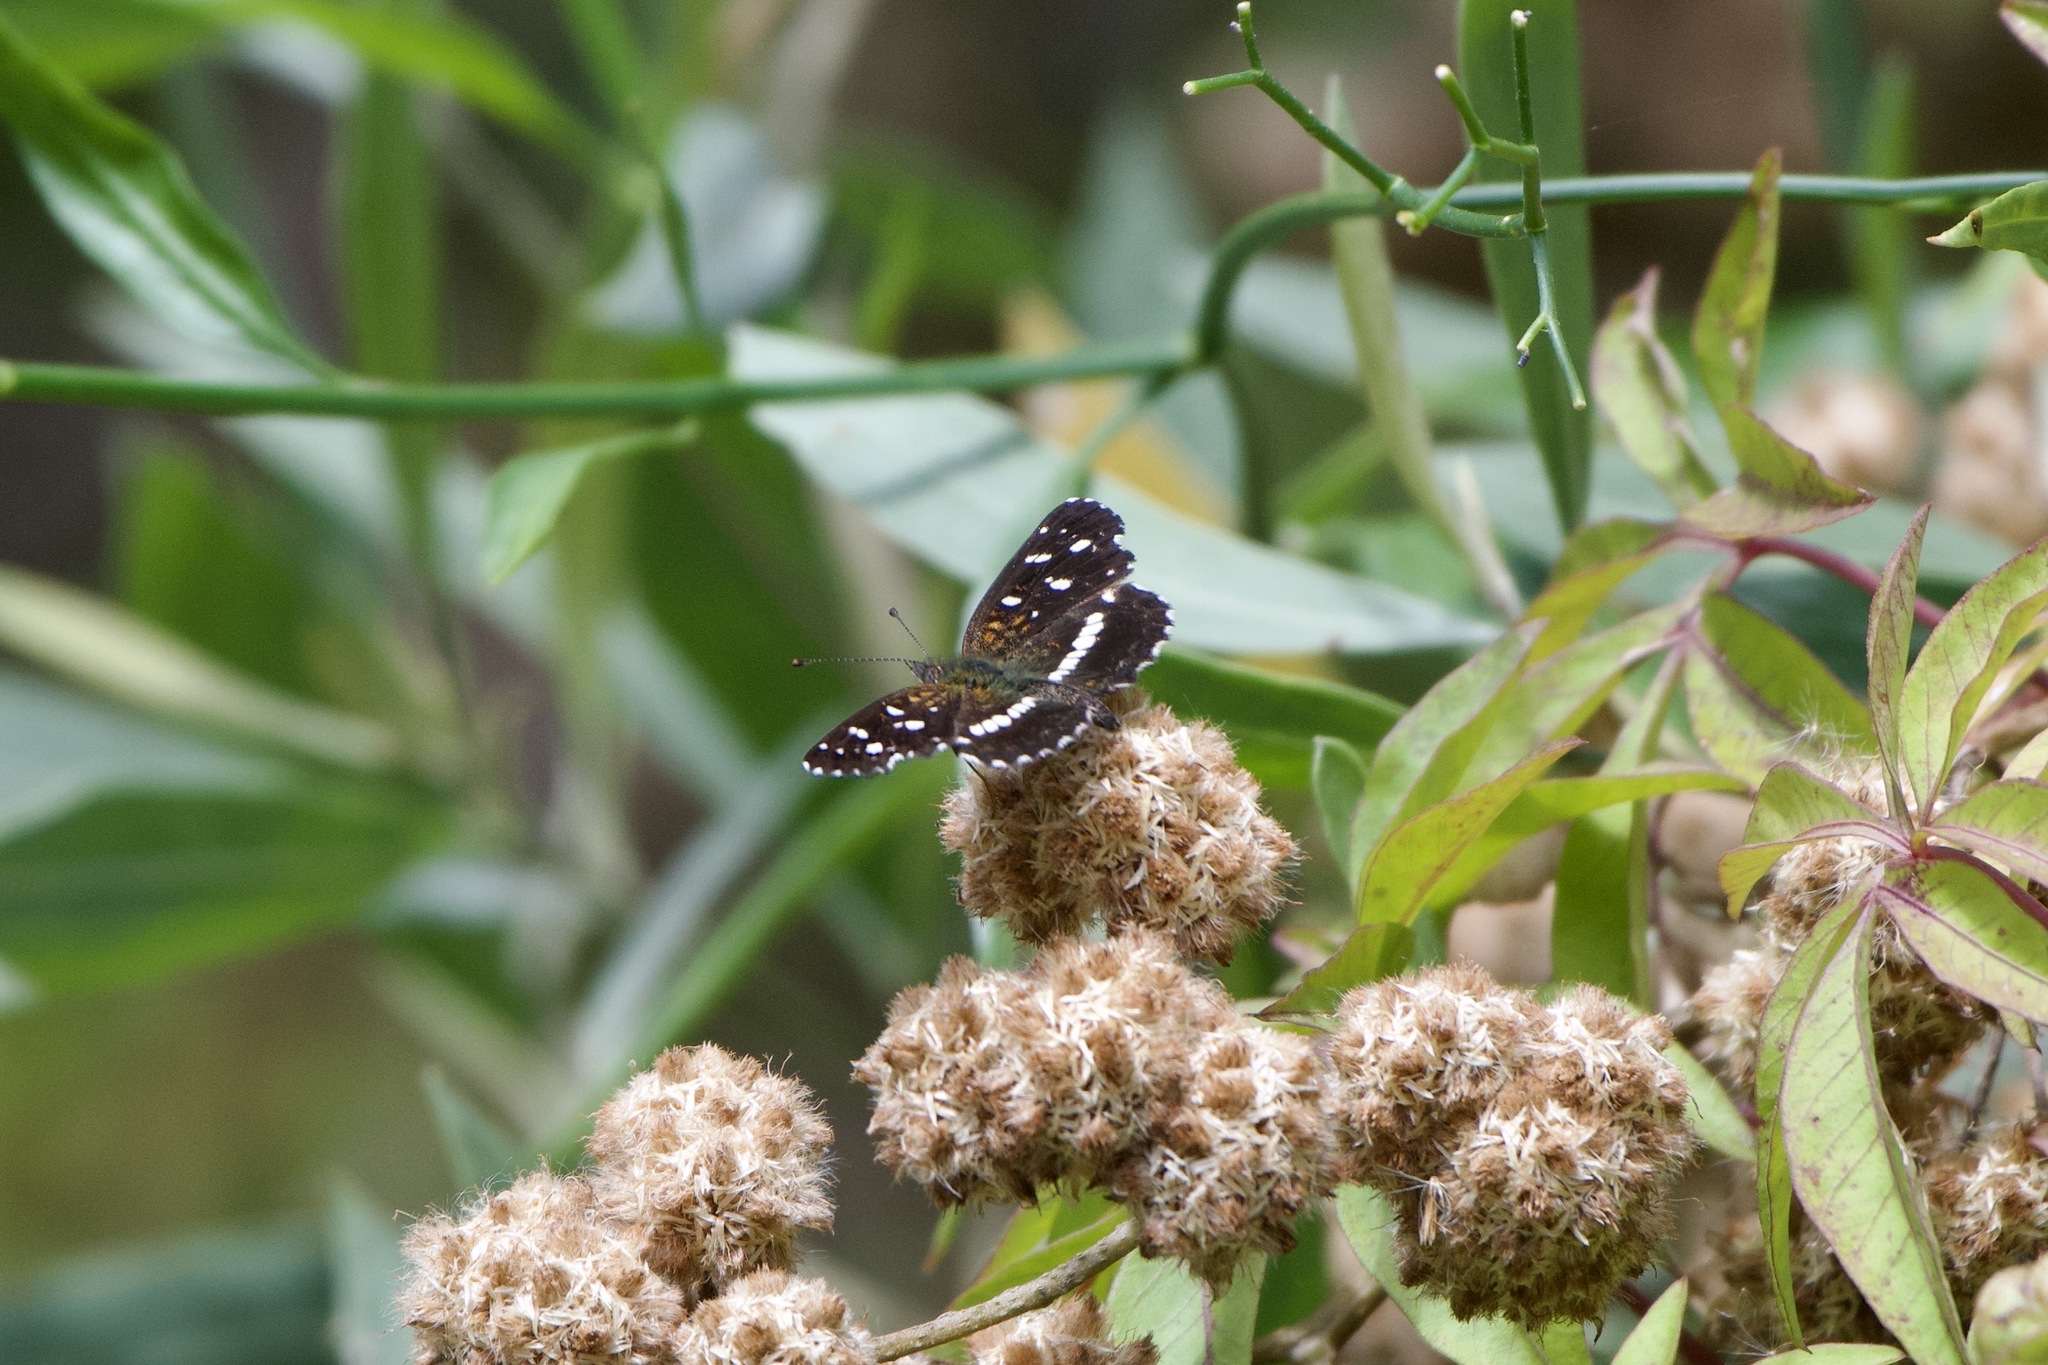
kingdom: Animalia
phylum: Arthropoda
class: Insecta
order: Lepidoptera
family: Nymphalidae
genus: Ortilia
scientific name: Ortilia ithra
